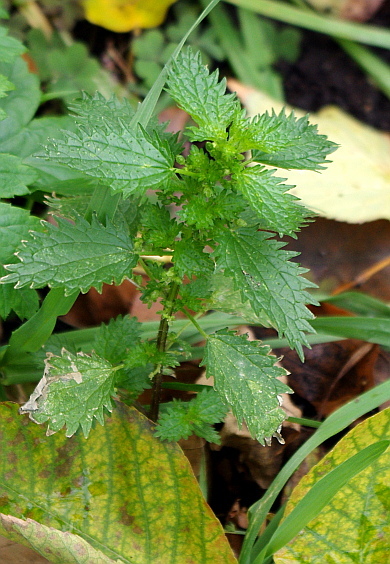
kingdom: Plantae
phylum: Tracheophyta
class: Magnoliopsida
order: Rosales
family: Urticaceae
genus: Urtica
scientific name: Urtica urens
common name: Dwarf nettle
